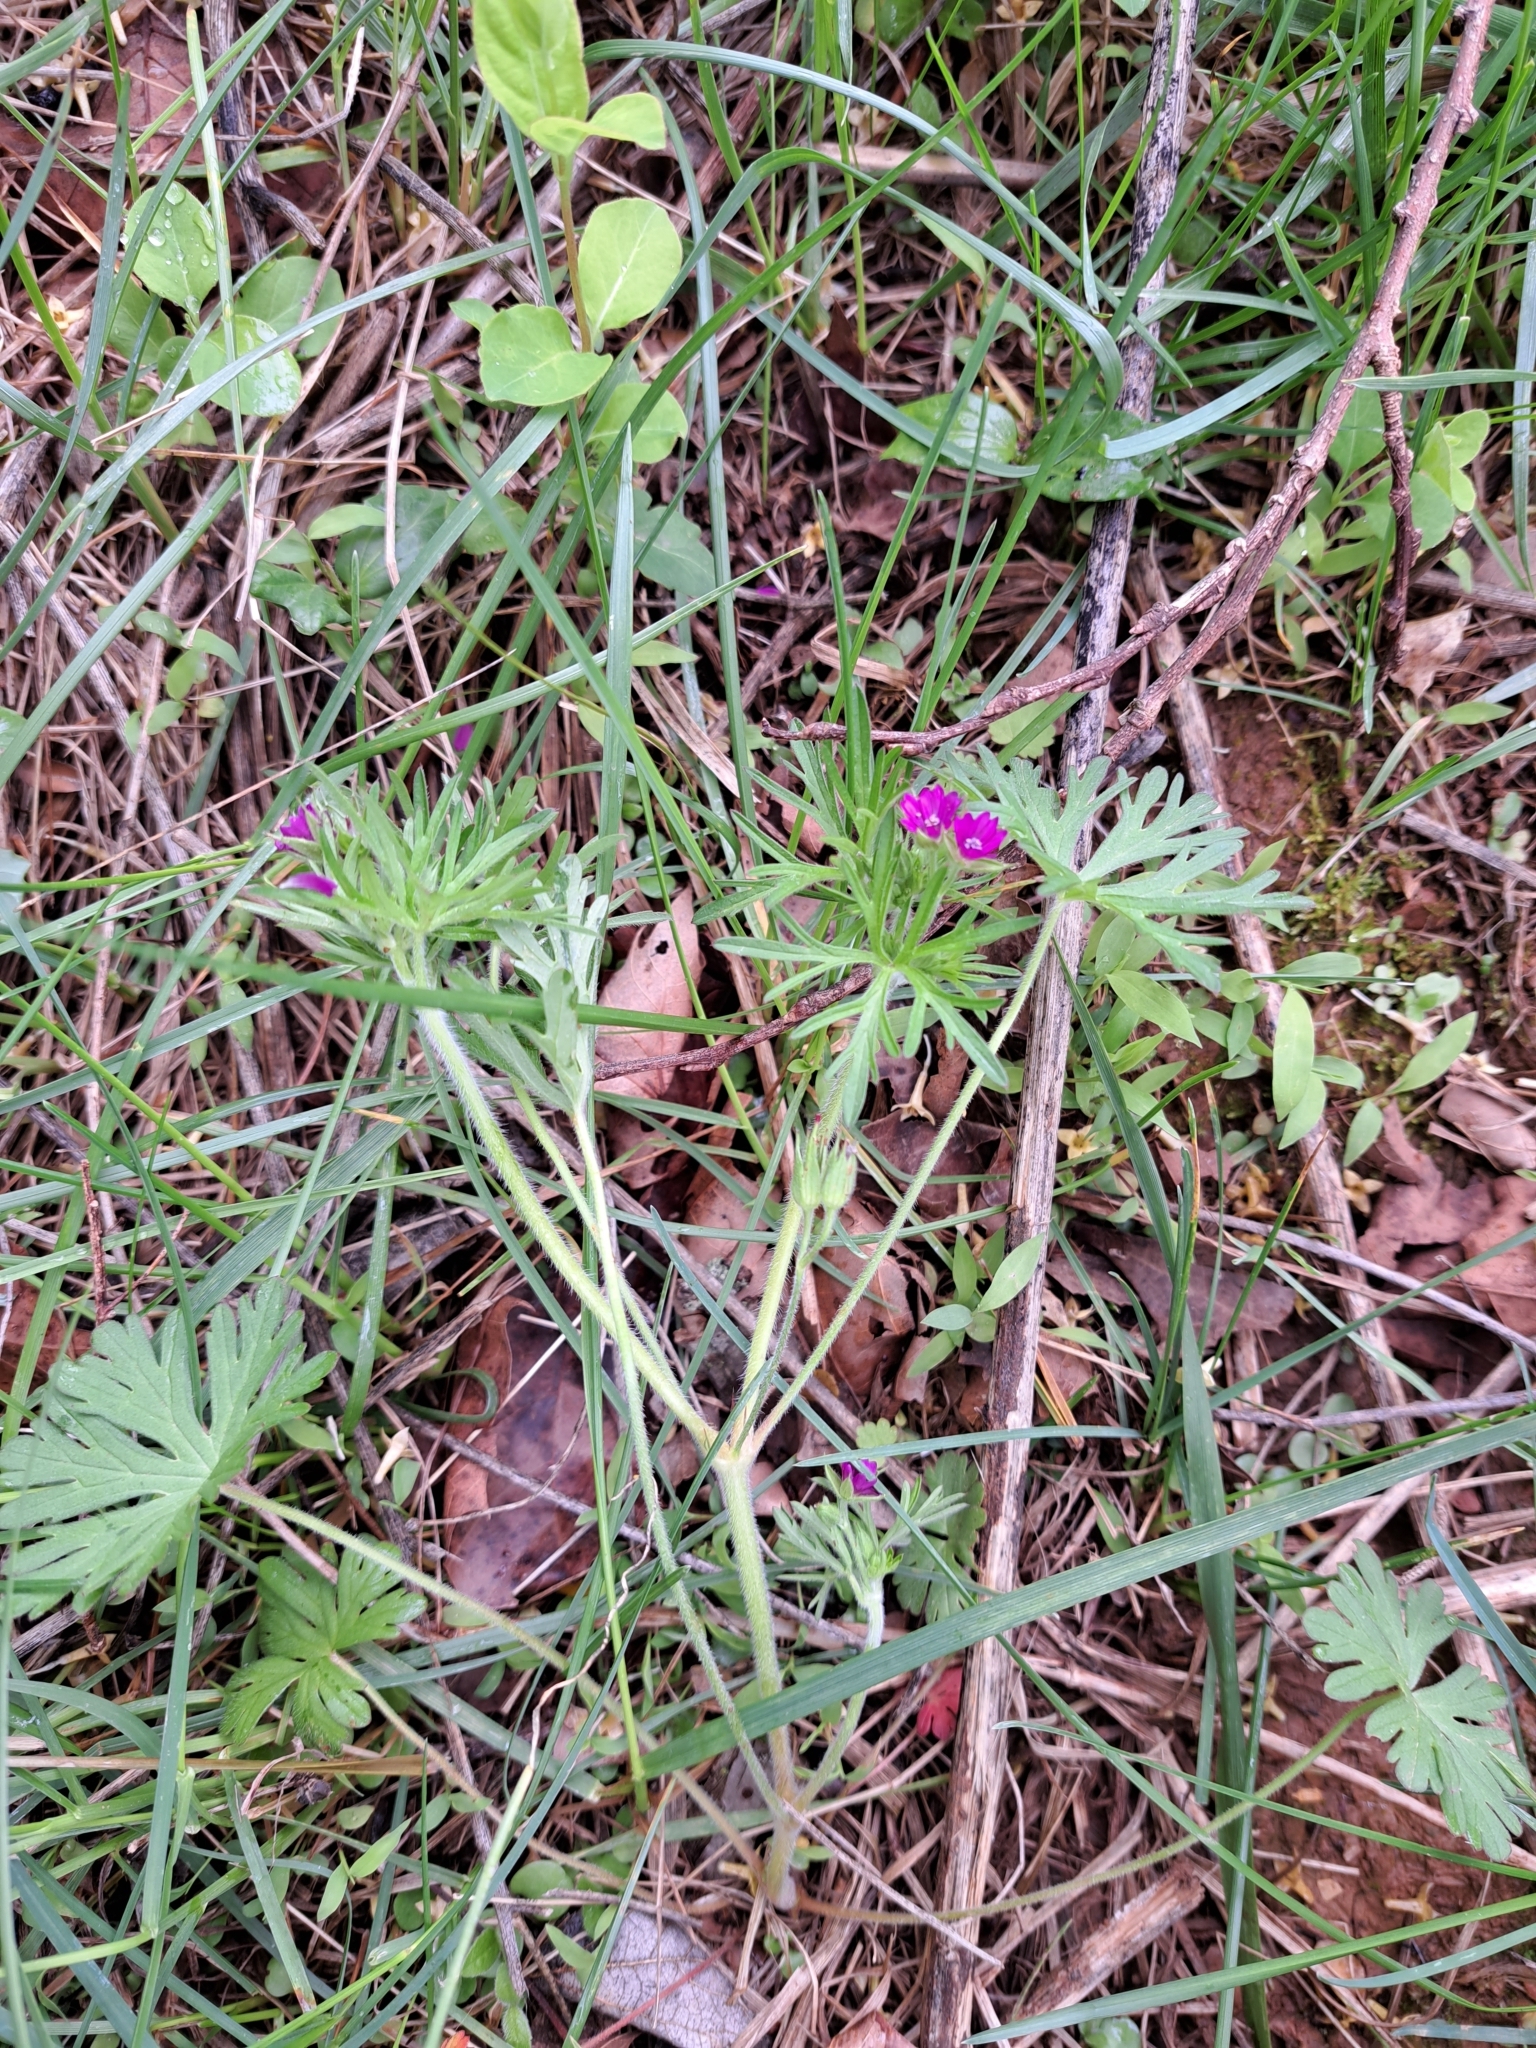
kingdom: Plantae
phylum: Tracheophyta
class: Magnoliopsida
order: Geraniales
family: Geraniaceae
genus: Geranium
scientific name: Geranium dissectum
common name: Cut-leaved crane's-bill
